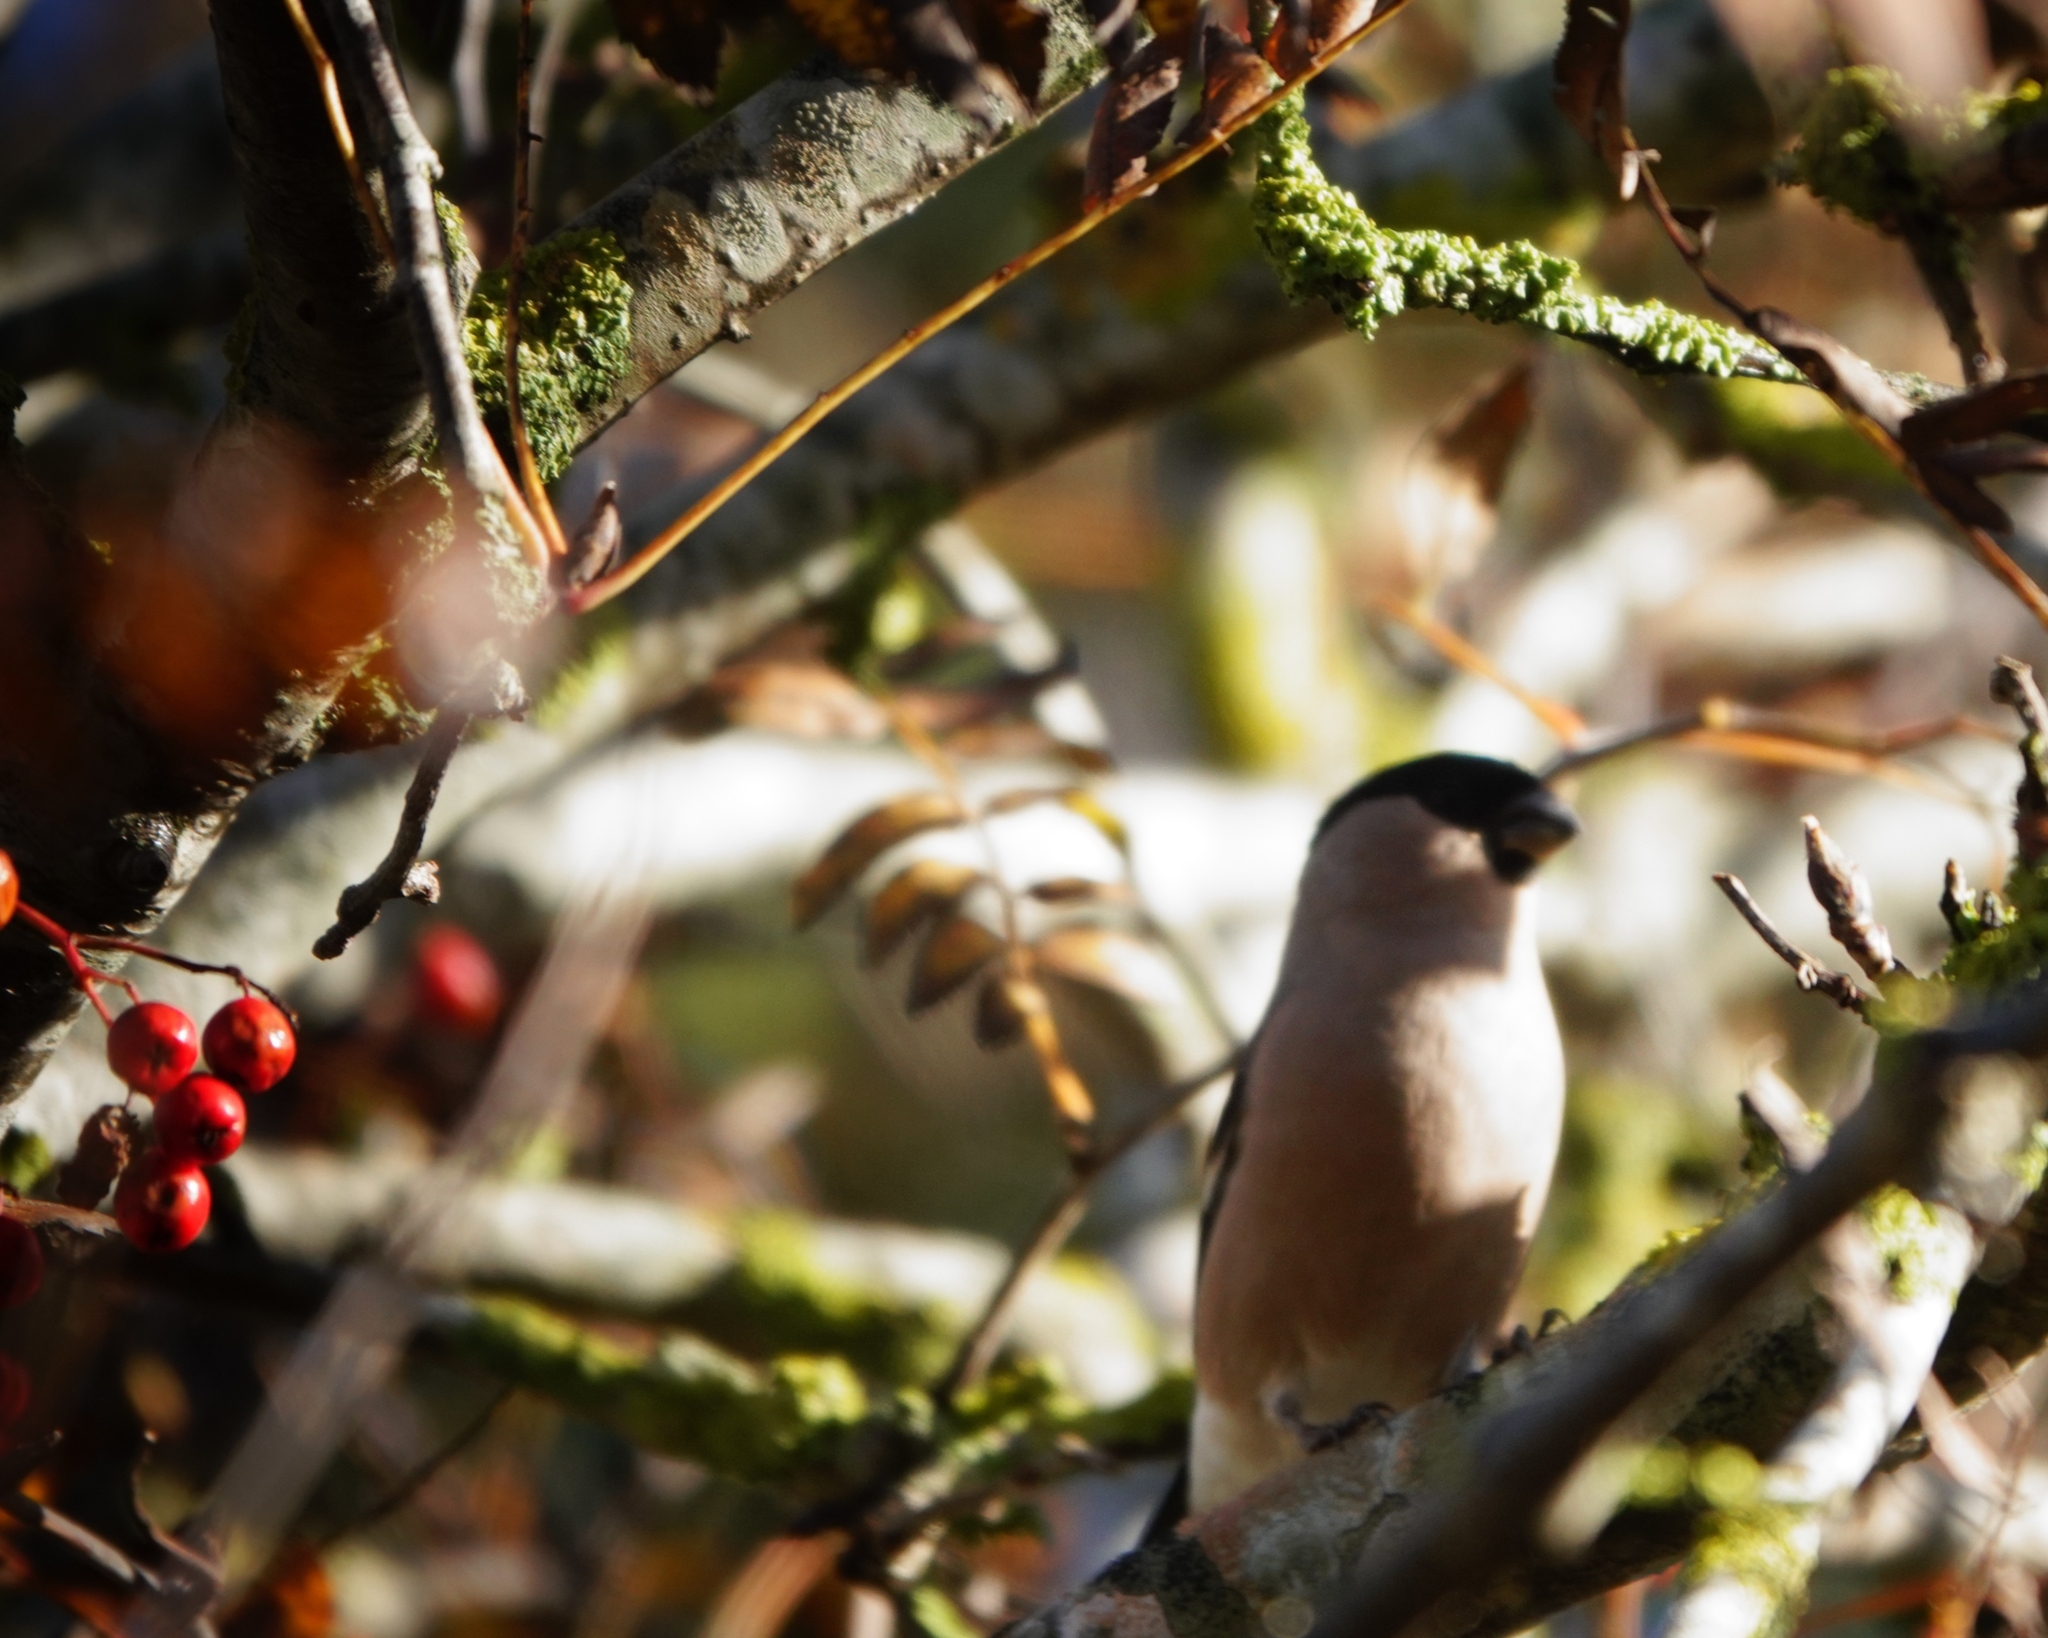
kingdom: Animalia
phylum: Chordata
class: Aves
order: Passeriformes
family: Fringillidae
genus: Pyrrhula
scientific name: Pyrrhula pyrrhula
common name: Eurasian bullfinch
